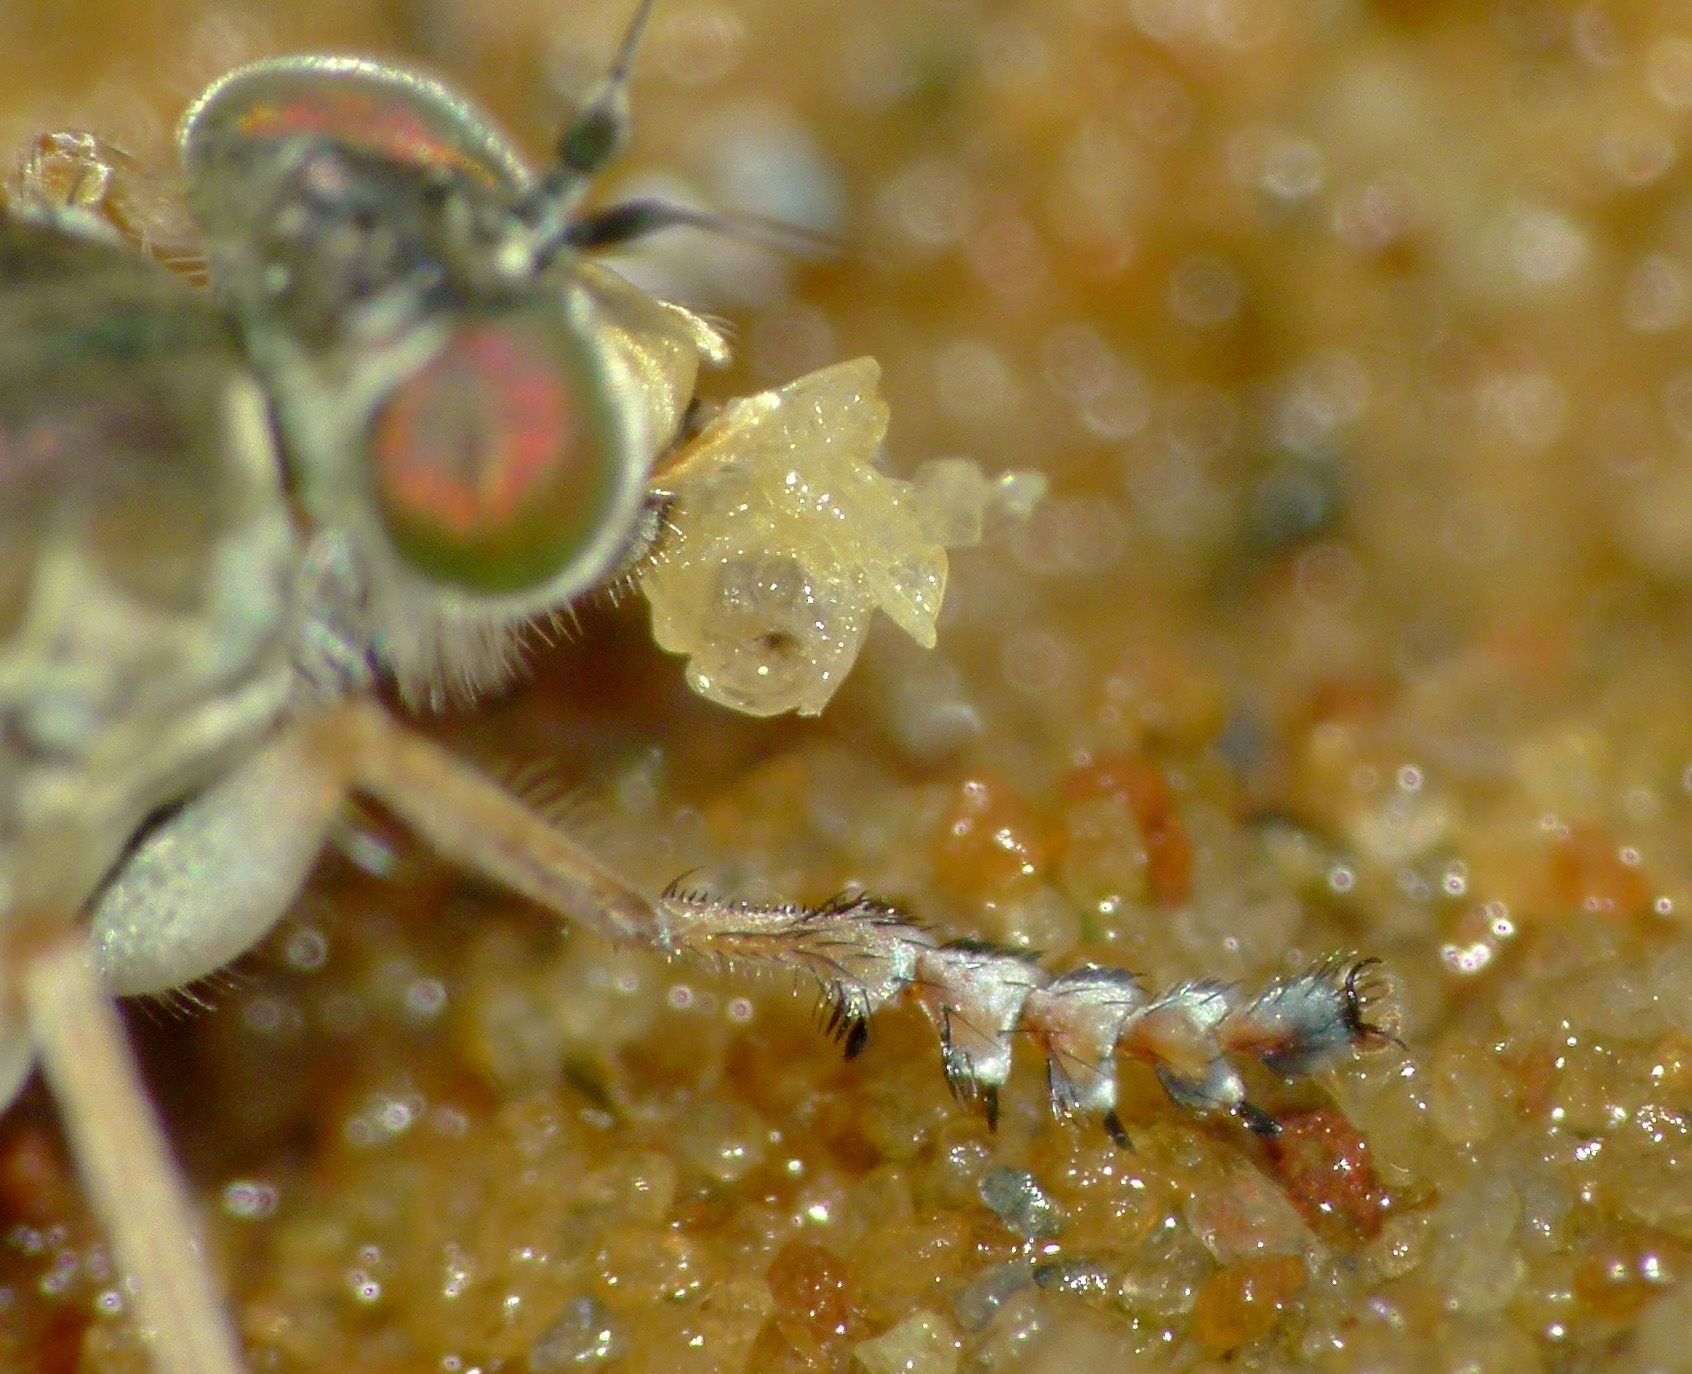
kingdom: Animalia
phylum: Arthropoda
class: Insecta
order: Diptera
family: Dolichopodidae
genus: Scorpiurus
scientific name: Scorpiurus aramoana
